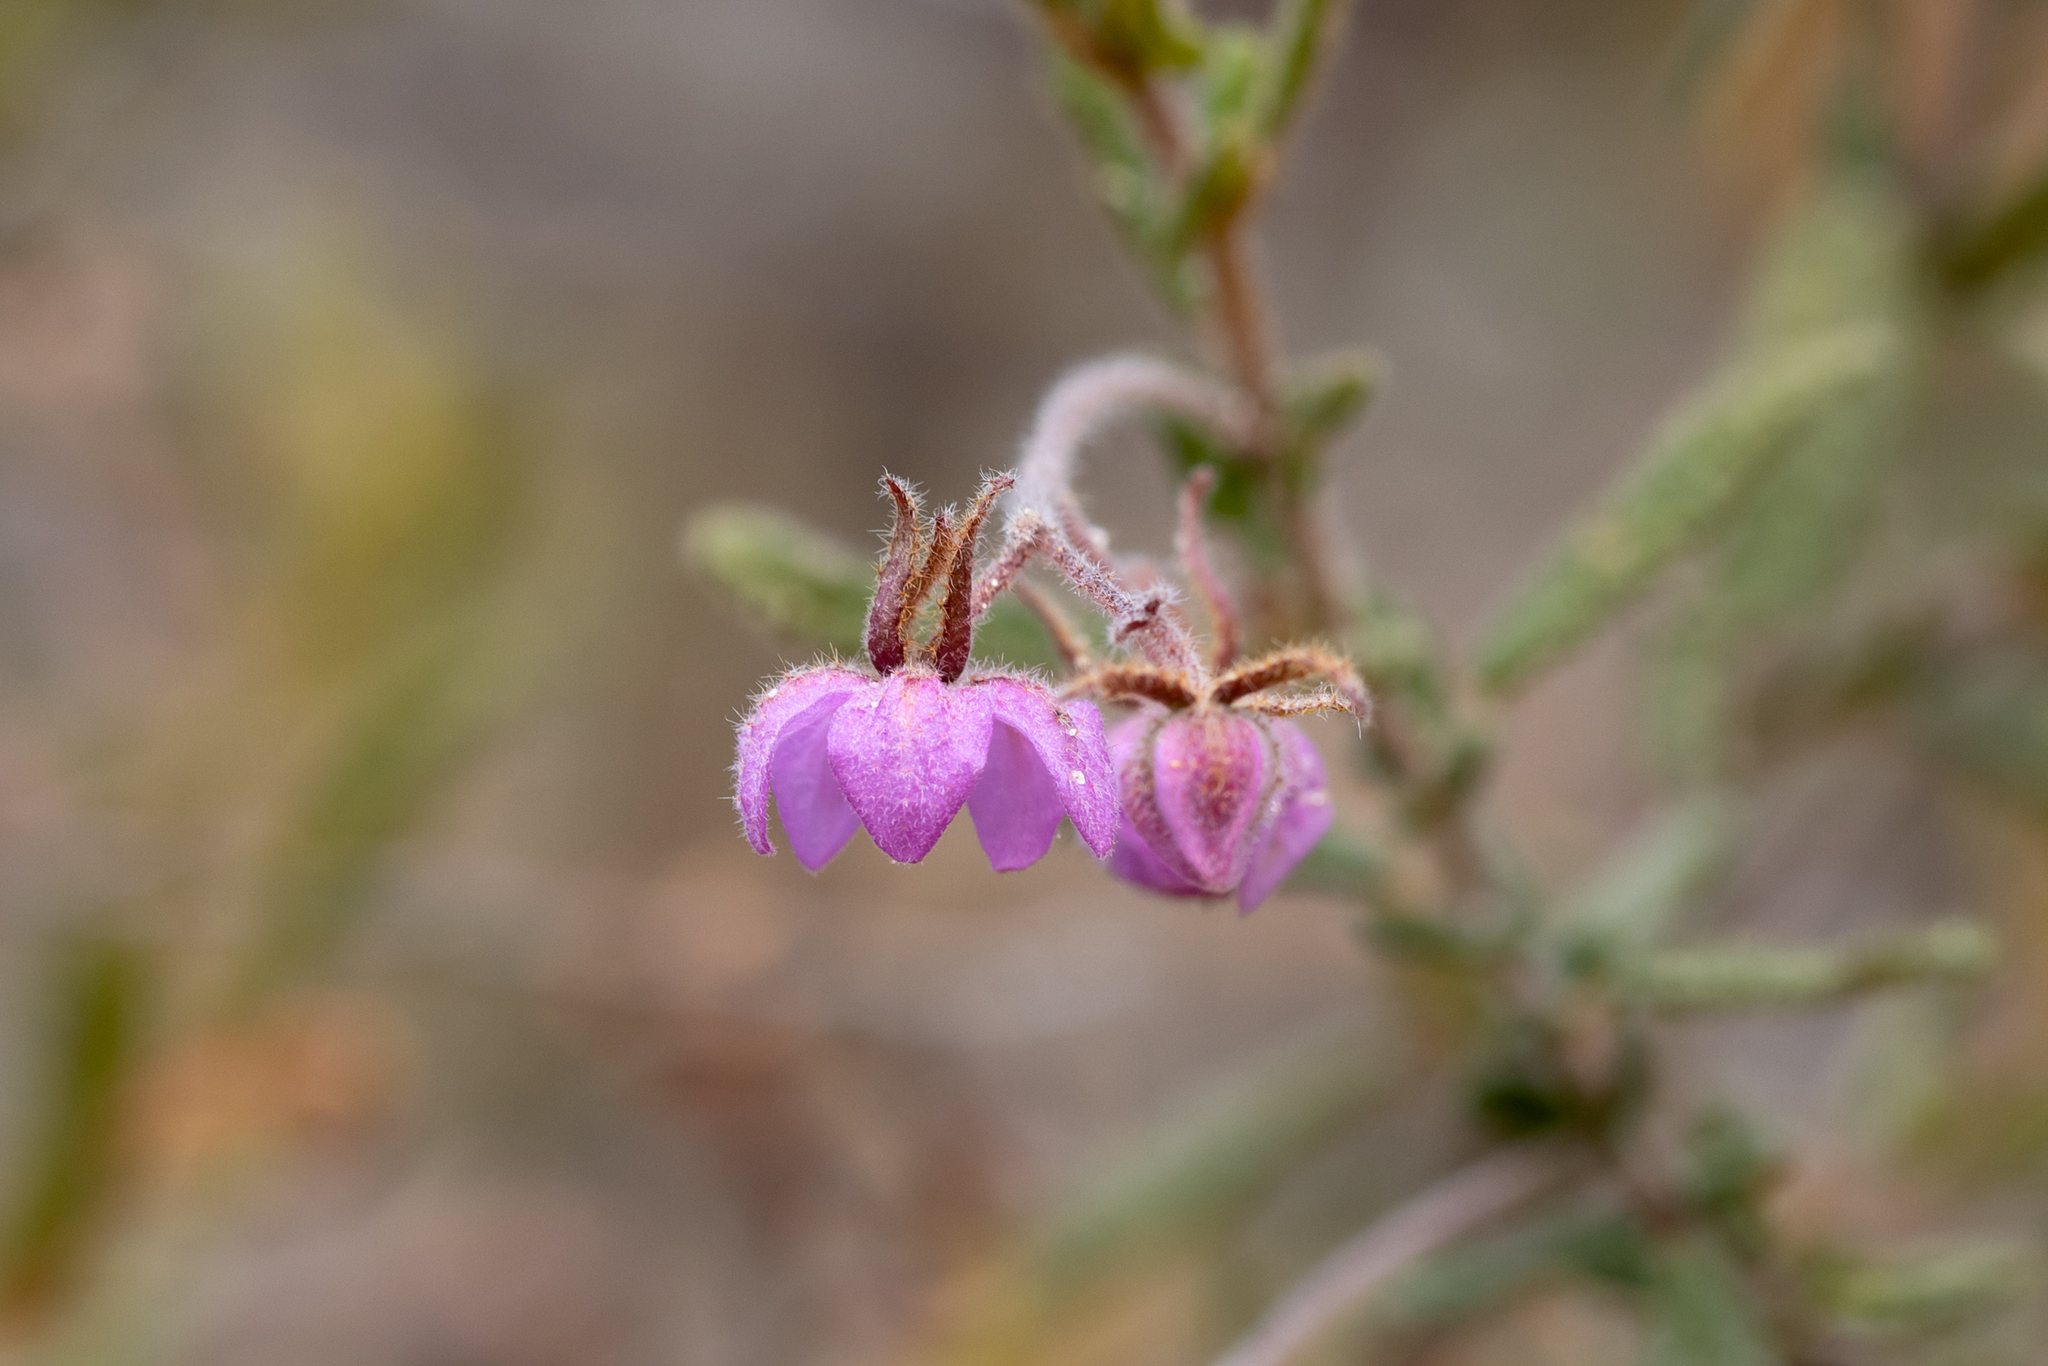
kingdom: Plantae
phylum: Tracheophyta
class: Magnoliopsida
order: Malvales
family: Malvaceae
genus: Thomasia
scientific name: Thomasia angustifolia
